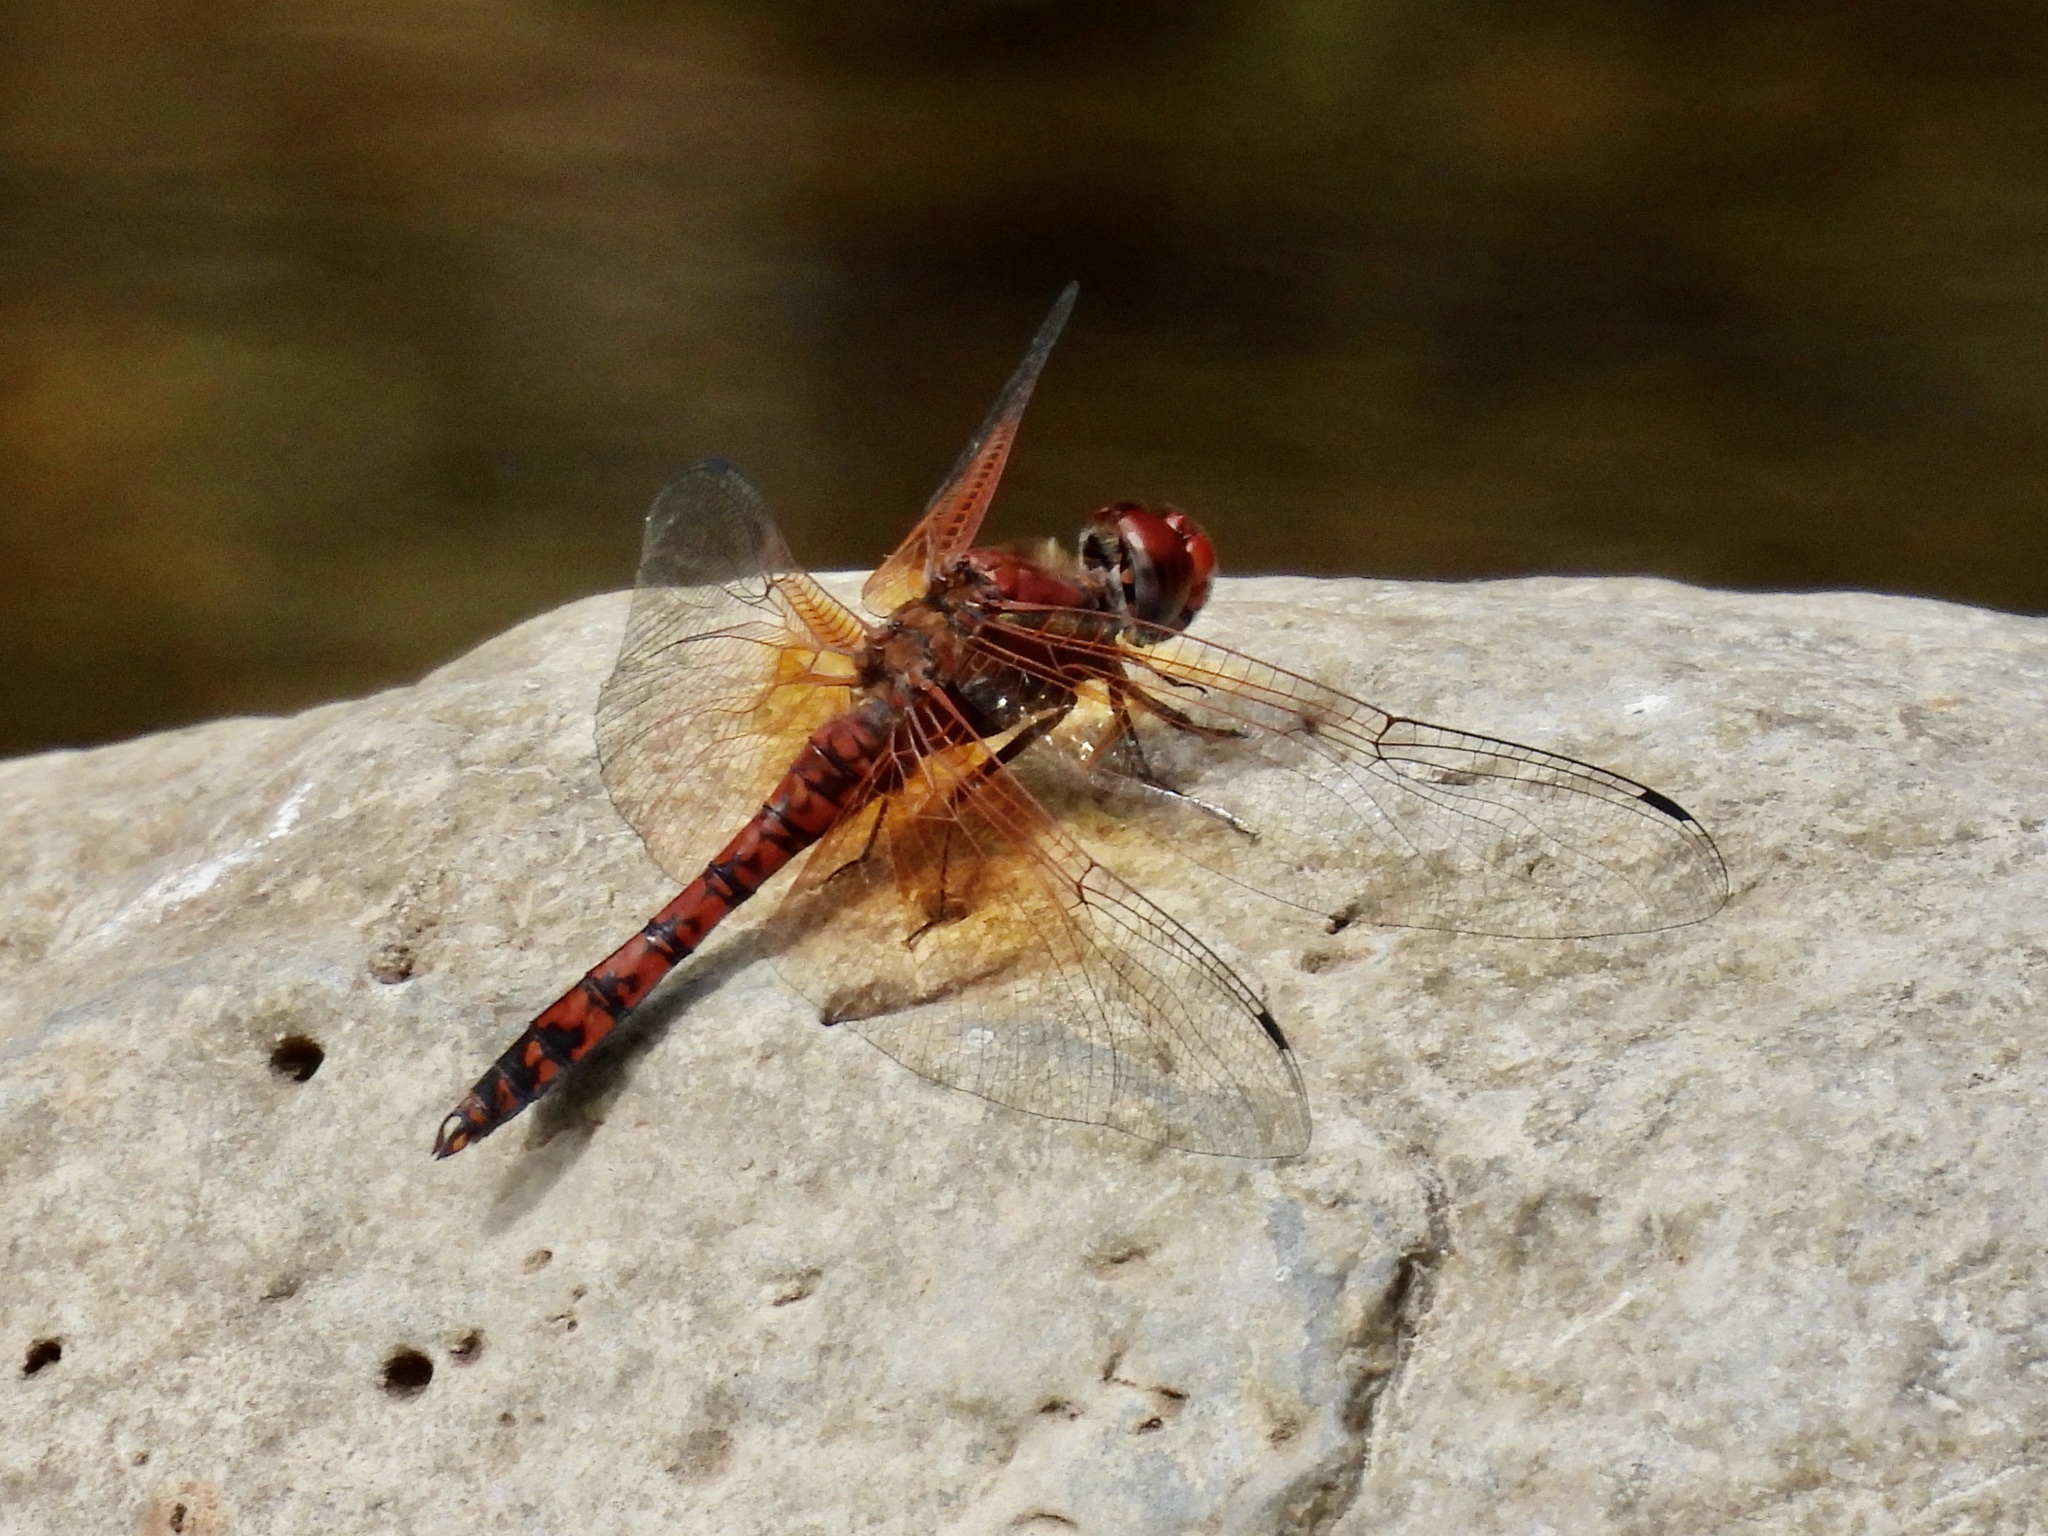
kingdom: Animalia
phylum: Arthropoda
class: Insecta
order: Odonata
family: Libellulidae
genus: Paltothemis
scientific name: Paltothemis lineatipes
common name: Red rock skimmer
